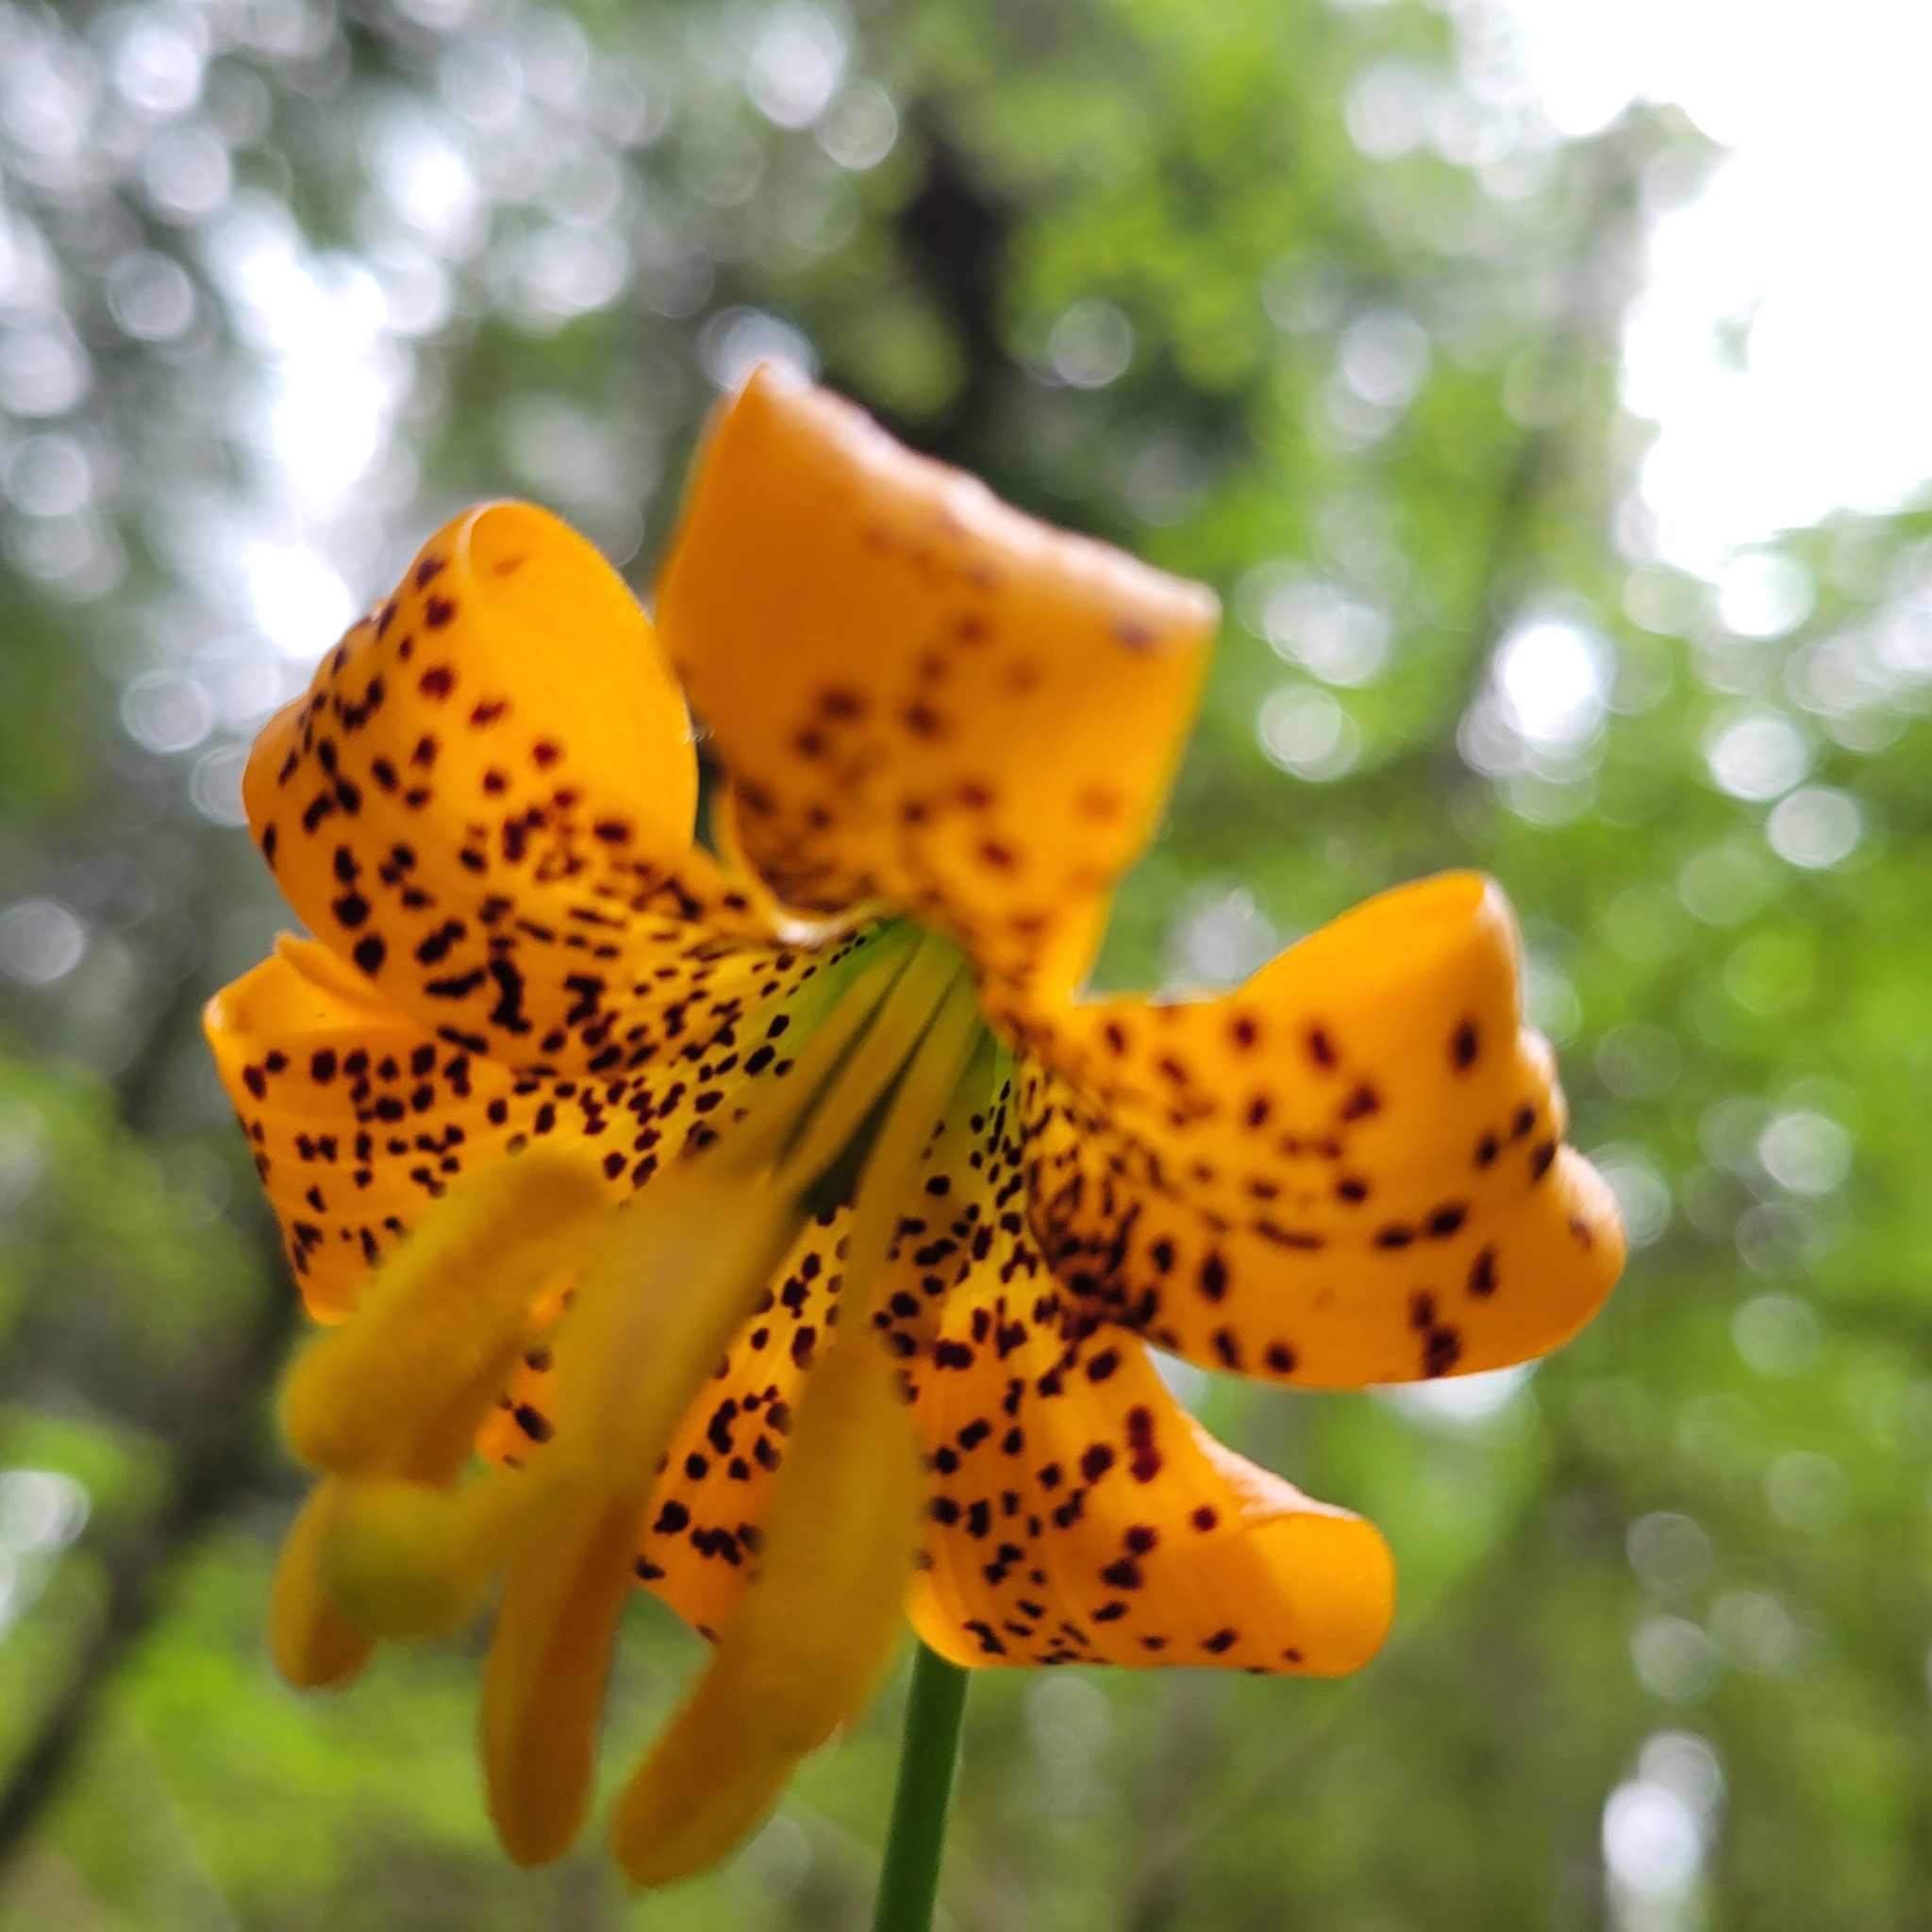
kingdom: Plantae
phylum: Tracheophyta
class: Liliopsida
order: Liliales
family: Liliaceae
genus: Lilium
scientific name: Lilium columbianum
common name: Columbia lily
